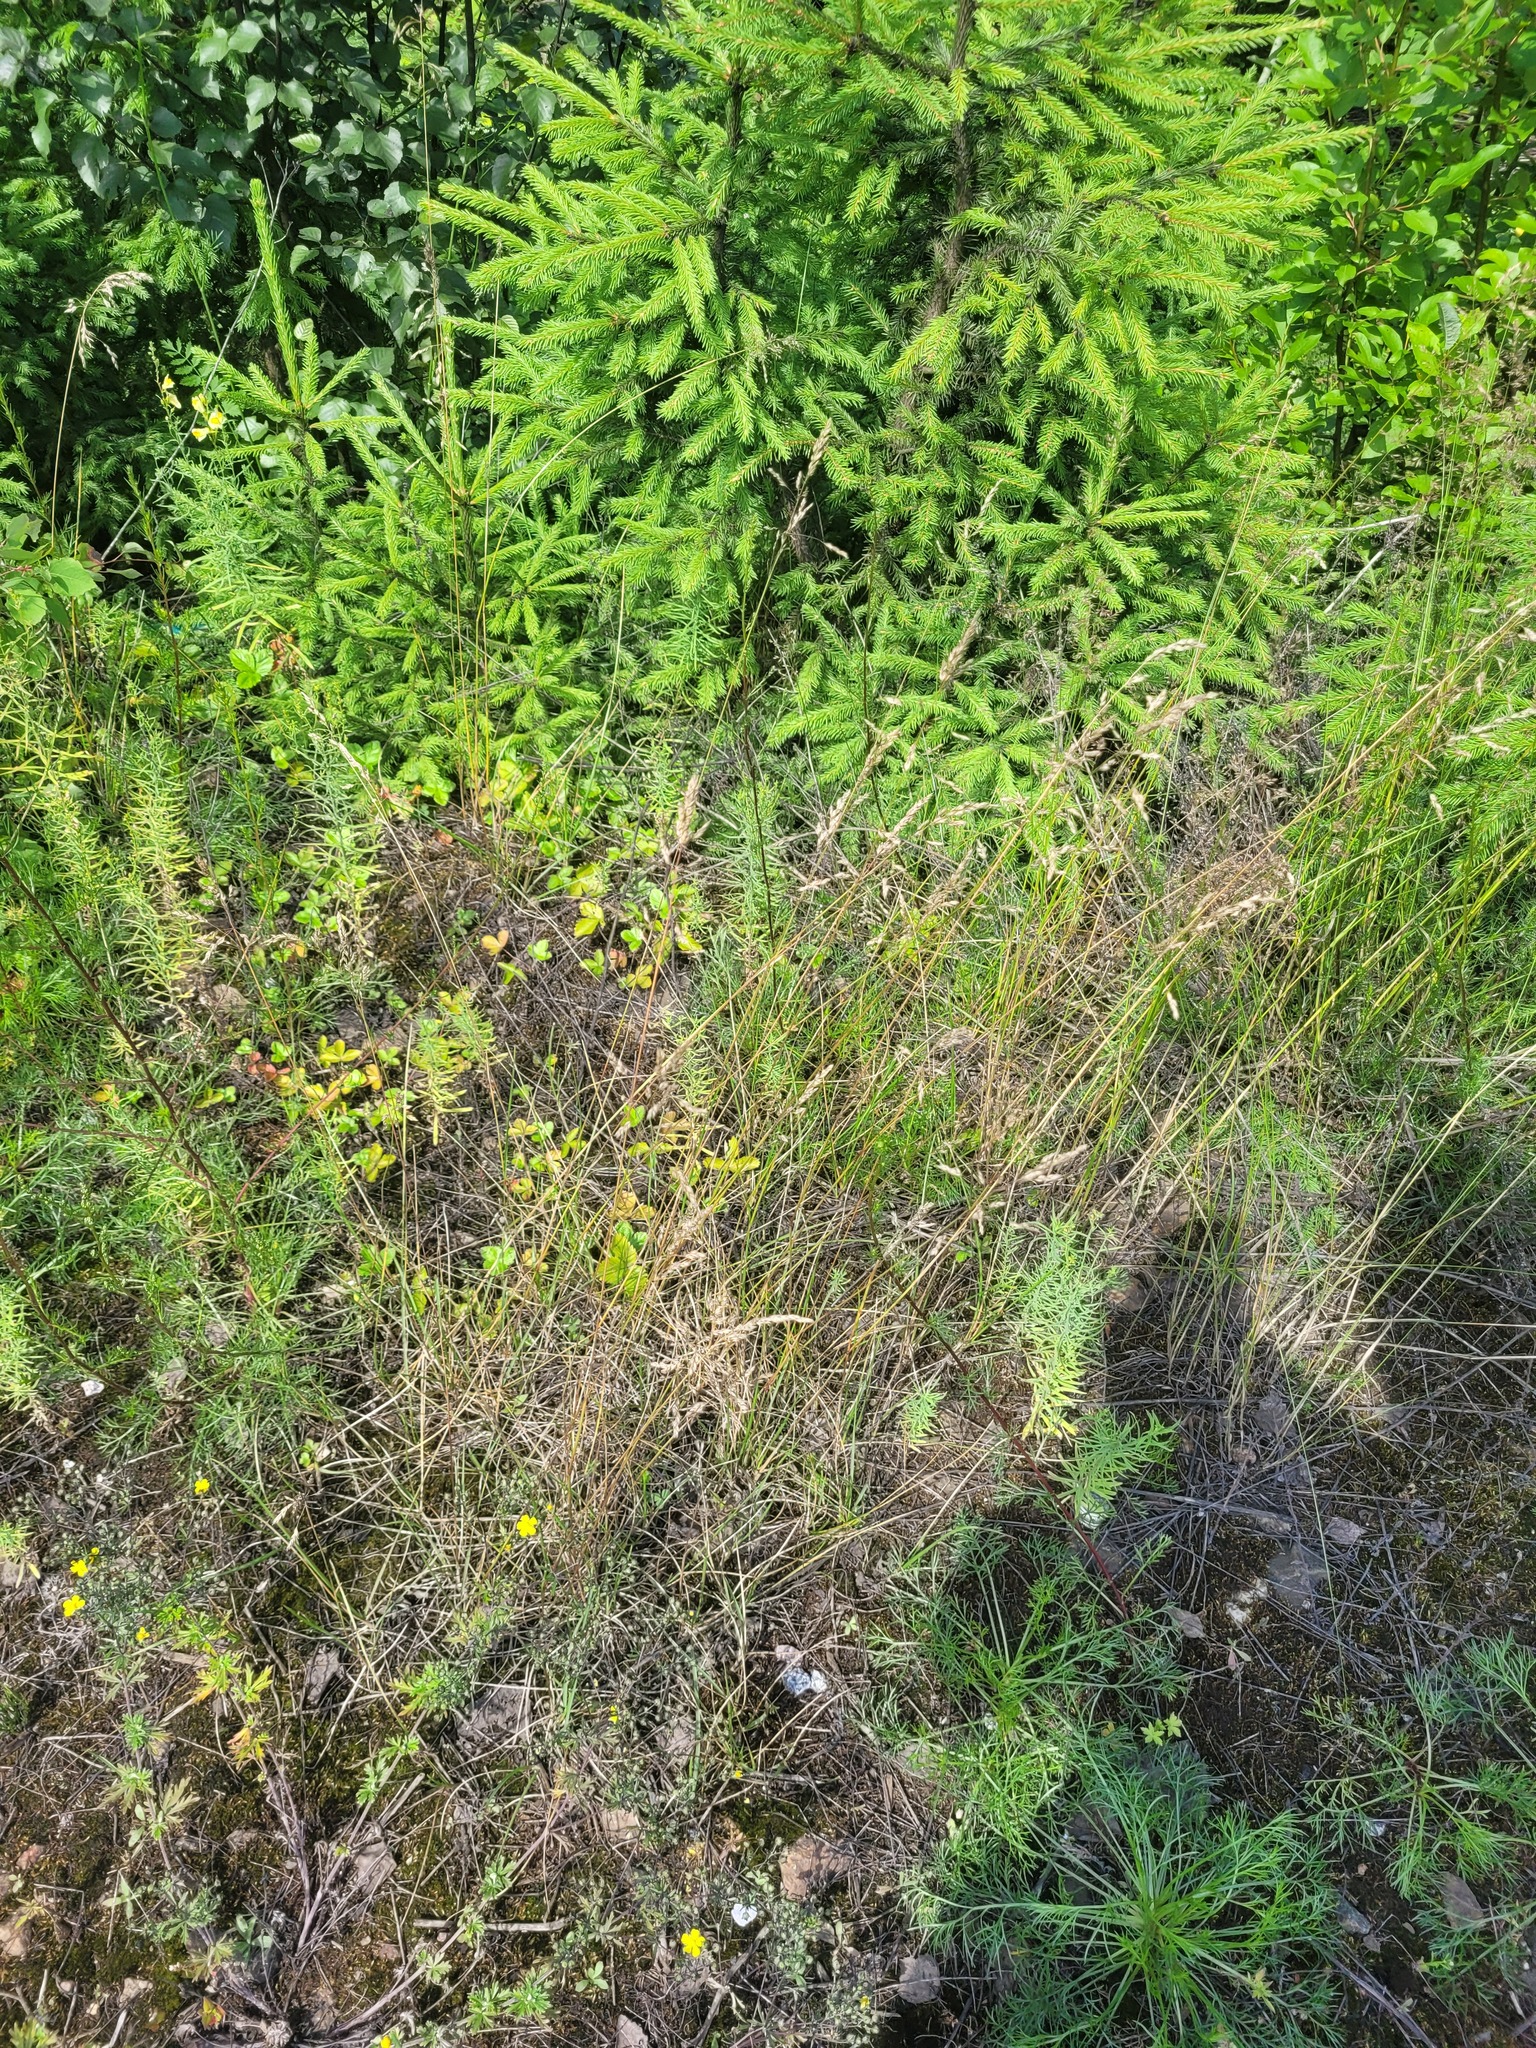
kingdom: Plantae
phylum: Tracheophyta
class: Liliopsida
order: Poales
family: Poaceae
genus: Poa
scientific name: Poa angustifolia
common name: Narrow-leaved meadow-grass
